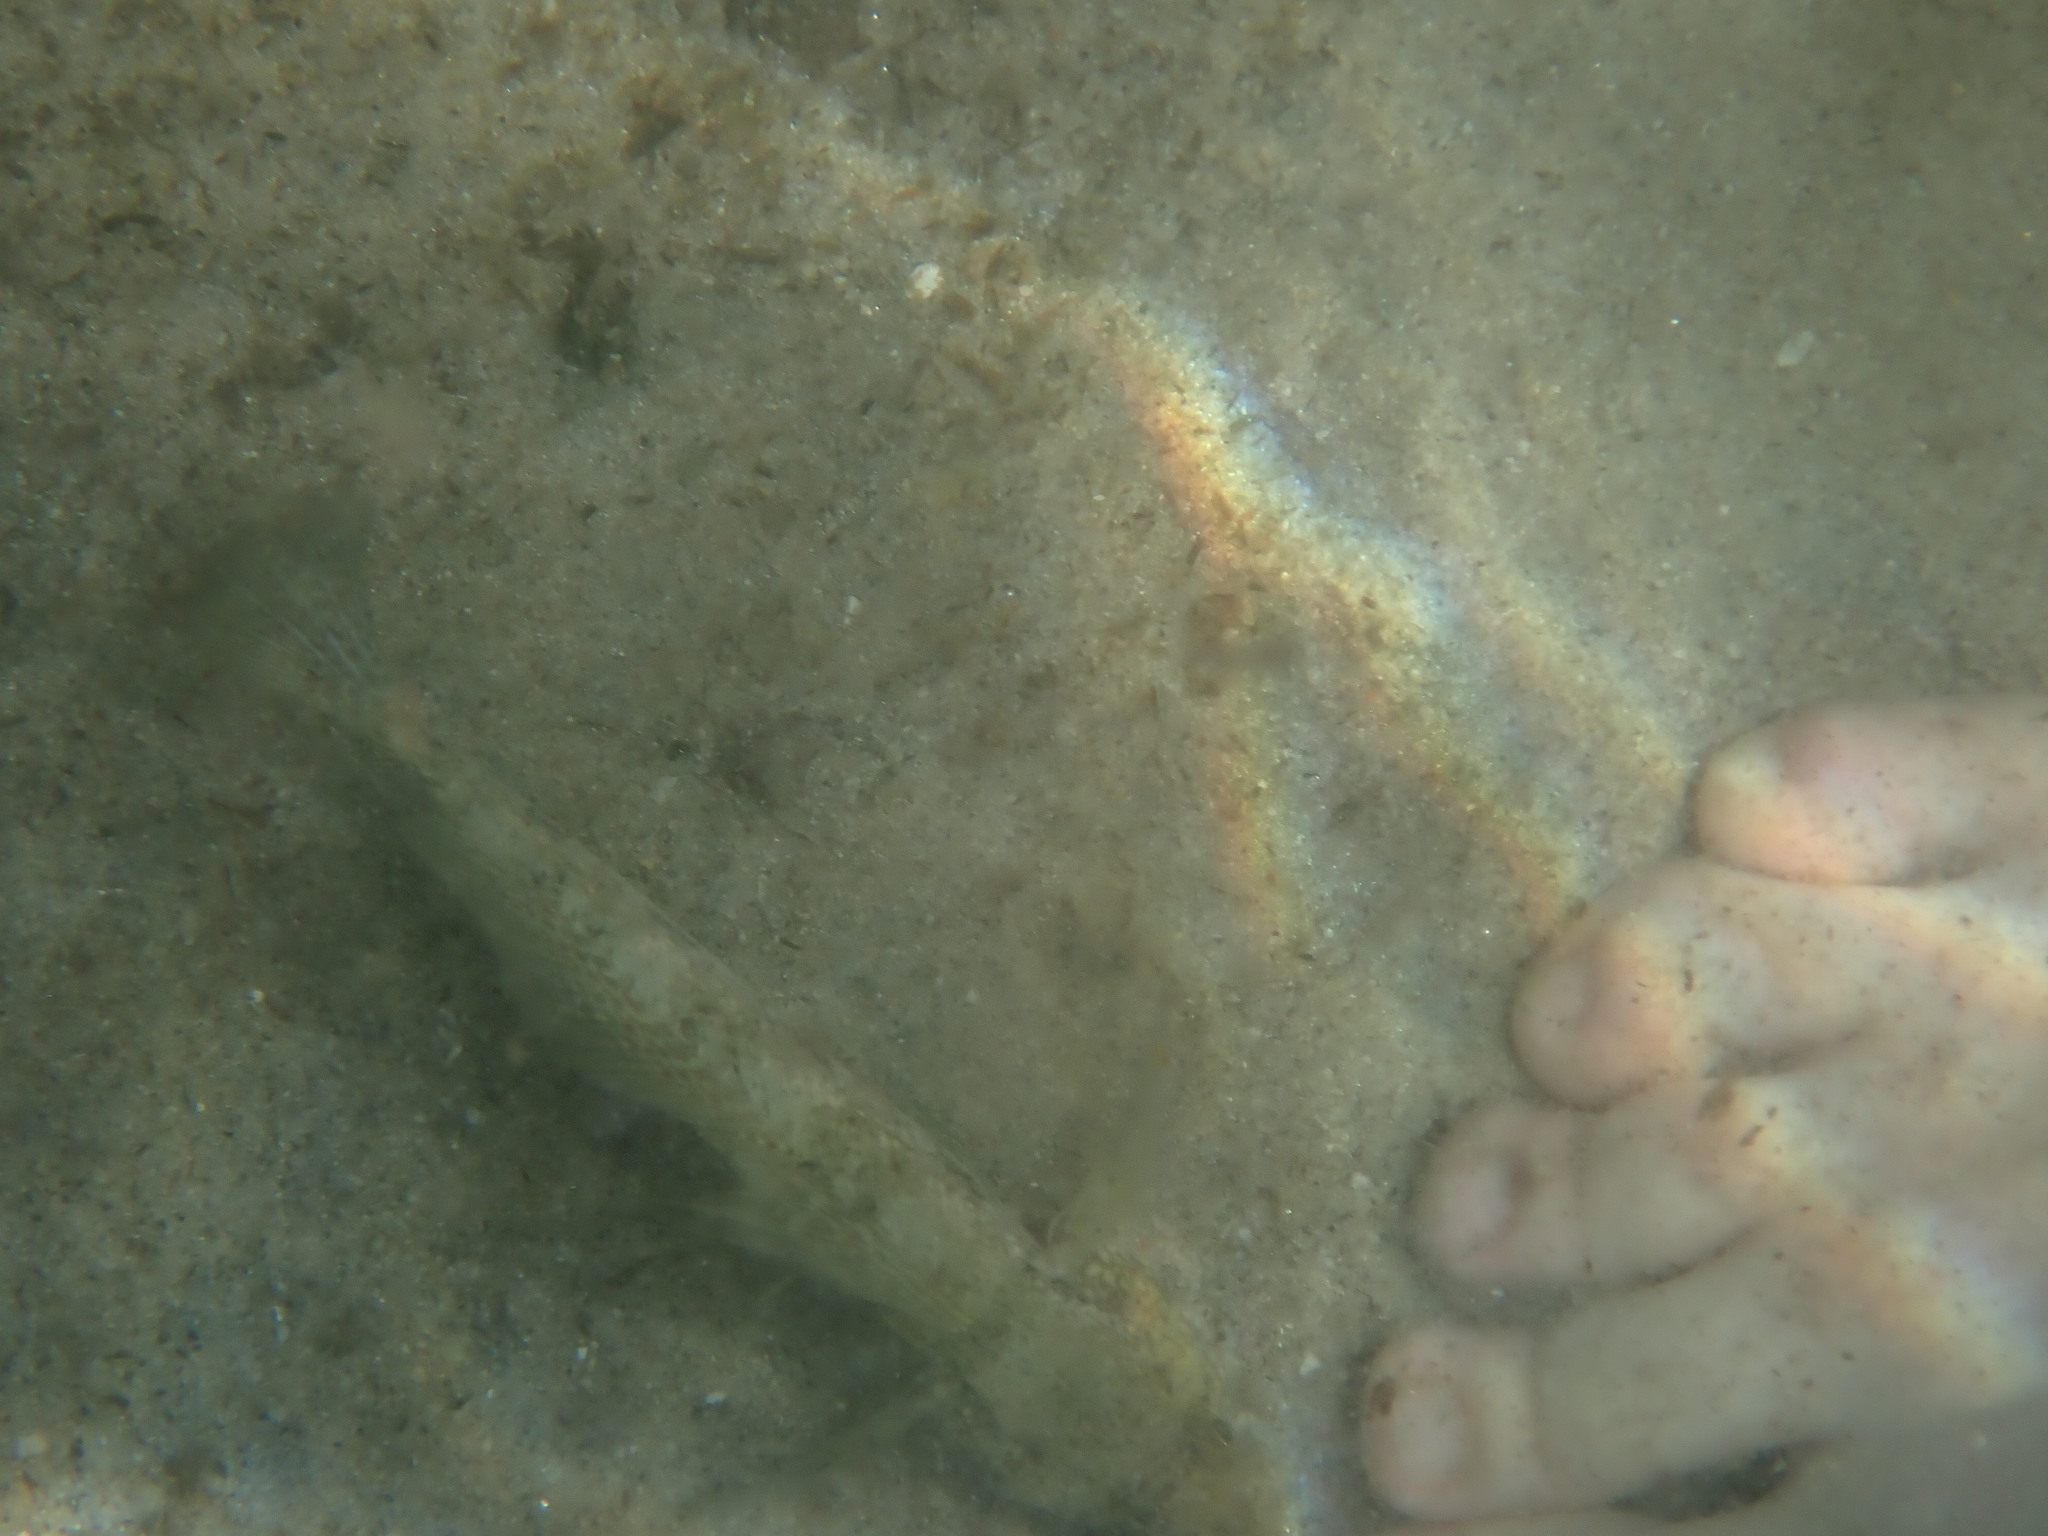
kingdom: Animalia
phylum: Chordata
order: Perciformes
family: Gobiidae
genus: Gobius
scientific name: Gobius niger
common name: Black goby
